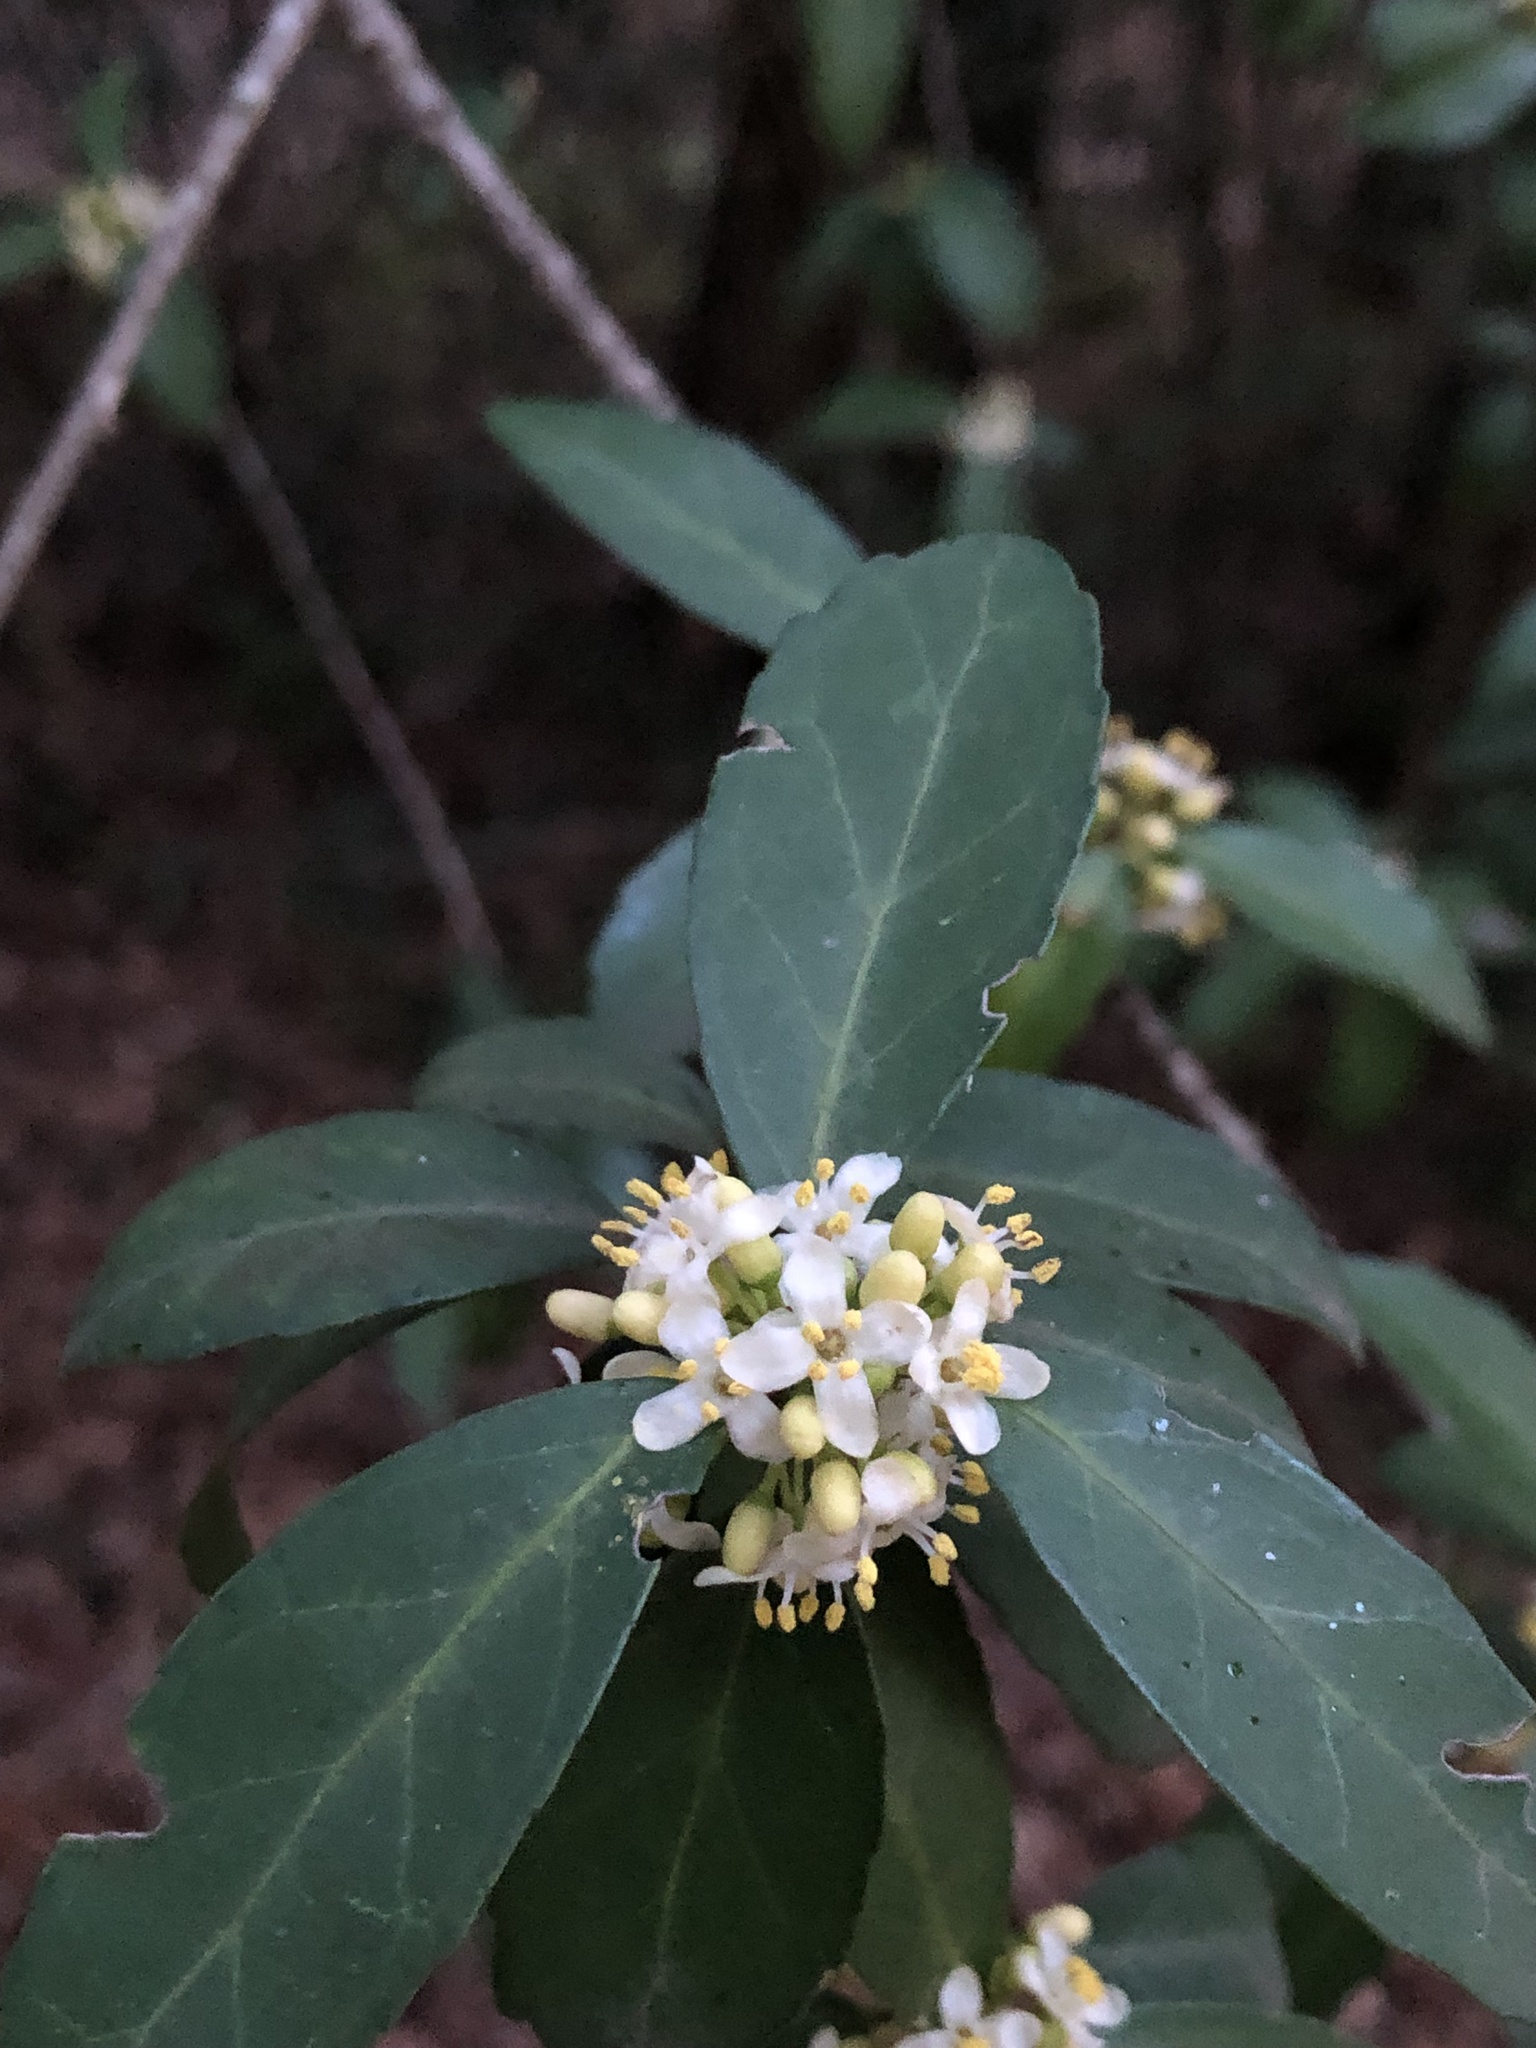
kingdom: Plantae
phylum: Tracheophyta
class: Magnoliopsida
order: Aquifoliales
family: Aquifoliaceae
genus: Ilex
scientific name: Ilex vomitoria
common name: Yaupon holly
